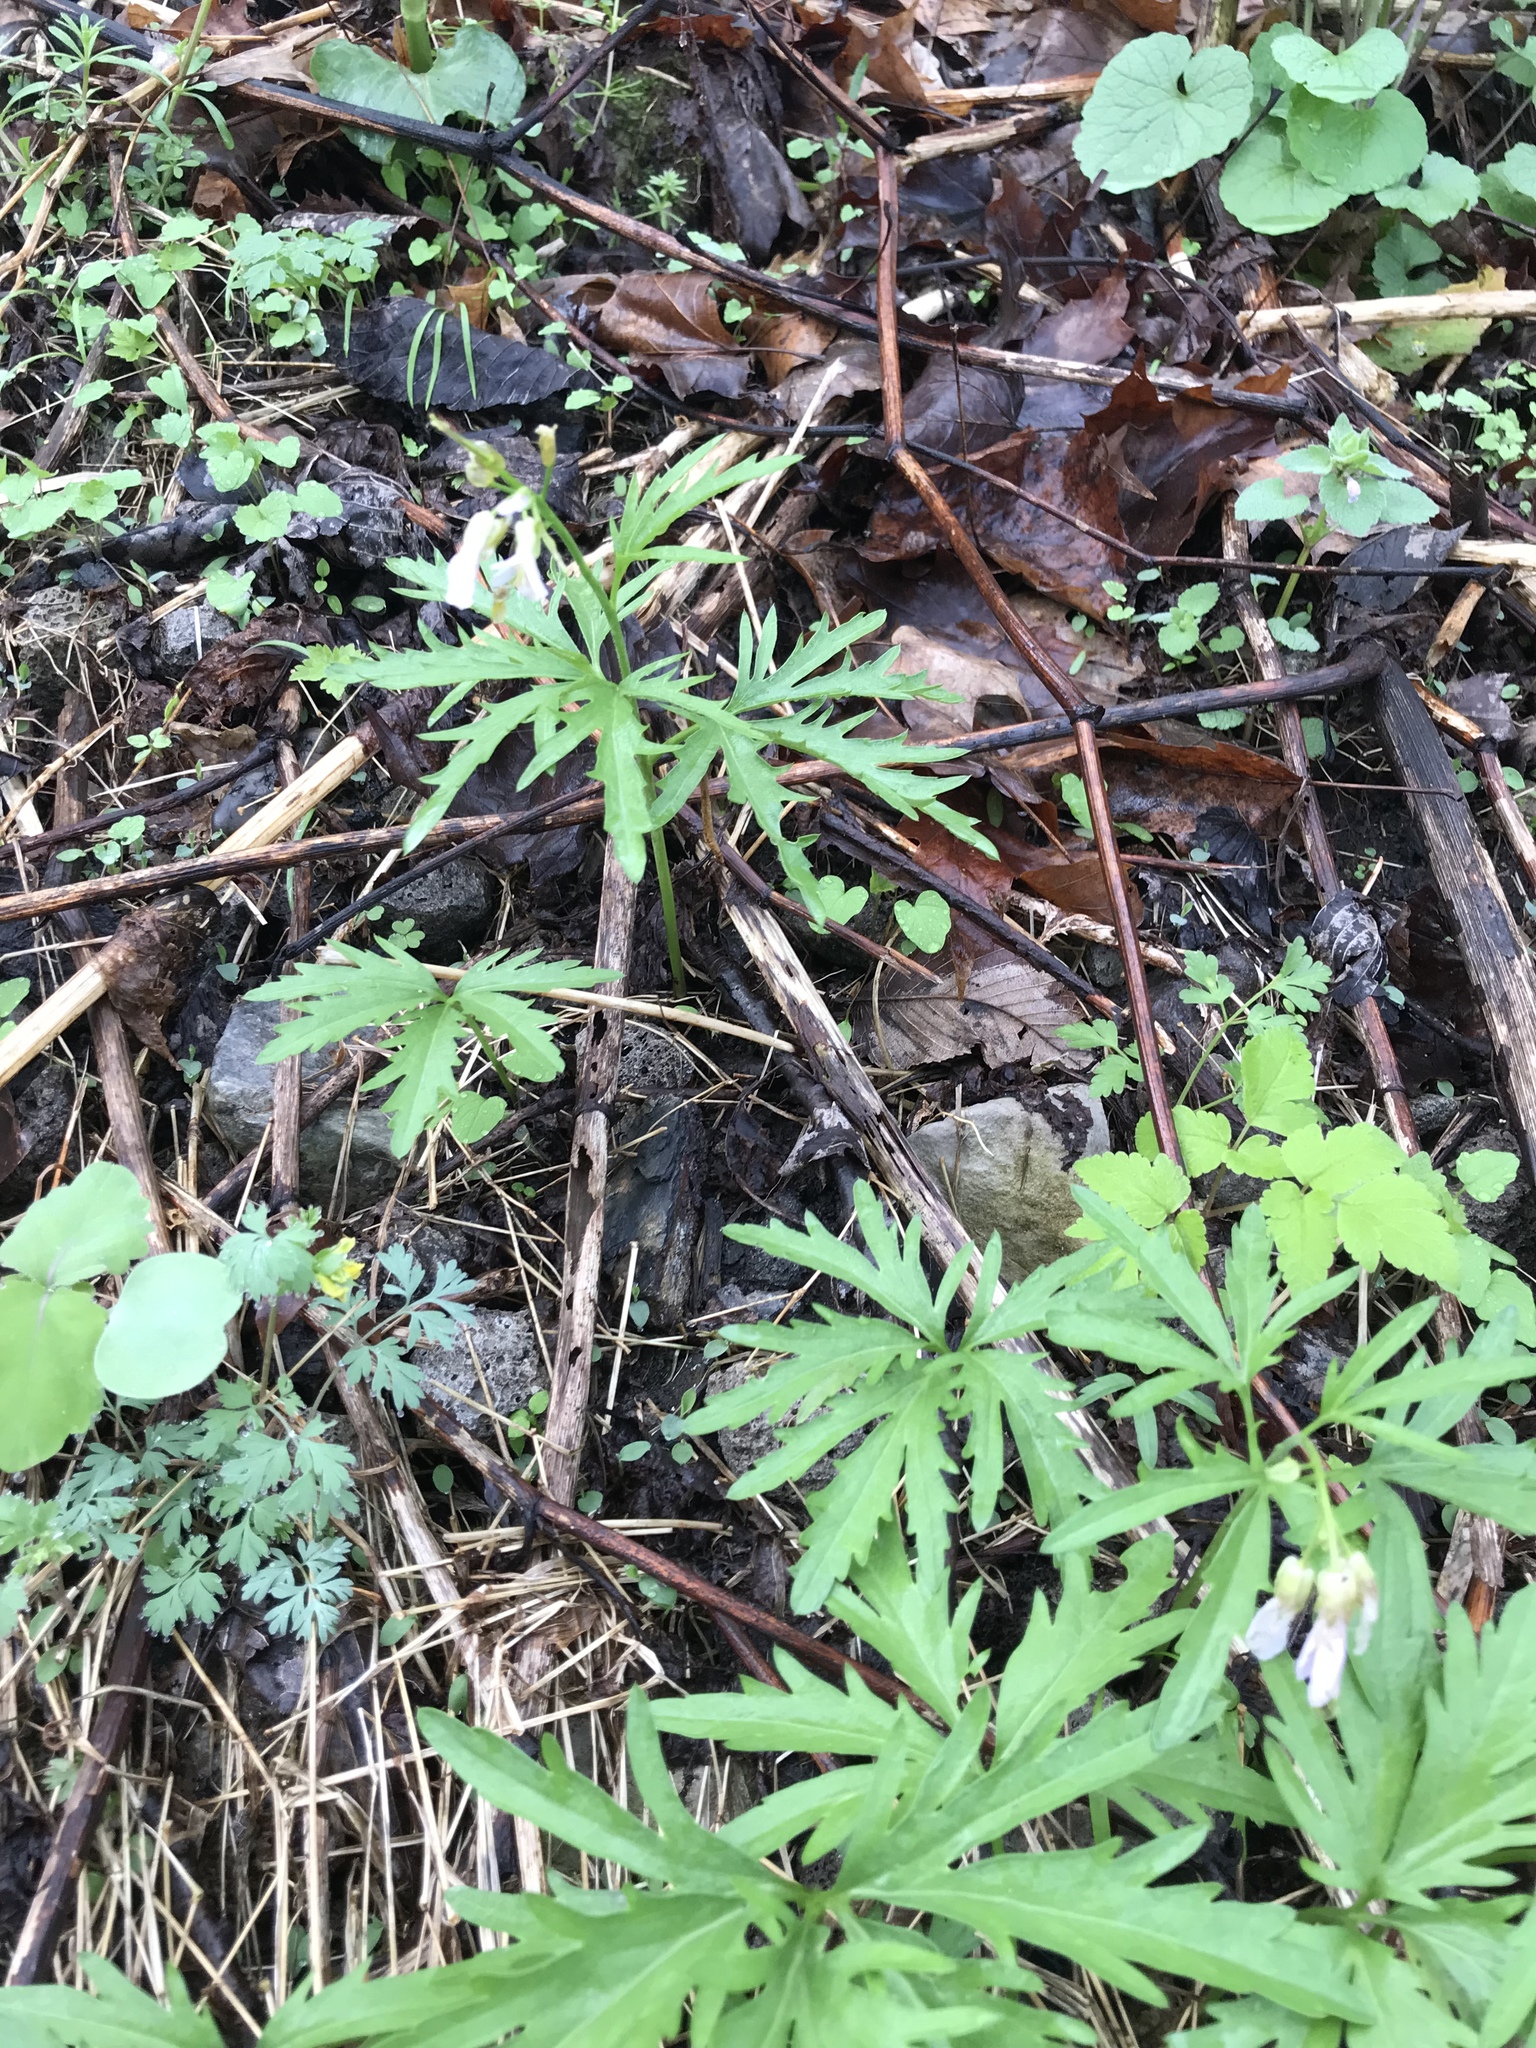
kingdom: Plantae
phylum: Tracheophyta
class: Magnoliopsida
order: Brassicales
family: Brassicaceae
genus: Cardamine
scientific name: Cardamine concatenata
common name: Cut-leaf toothcup
